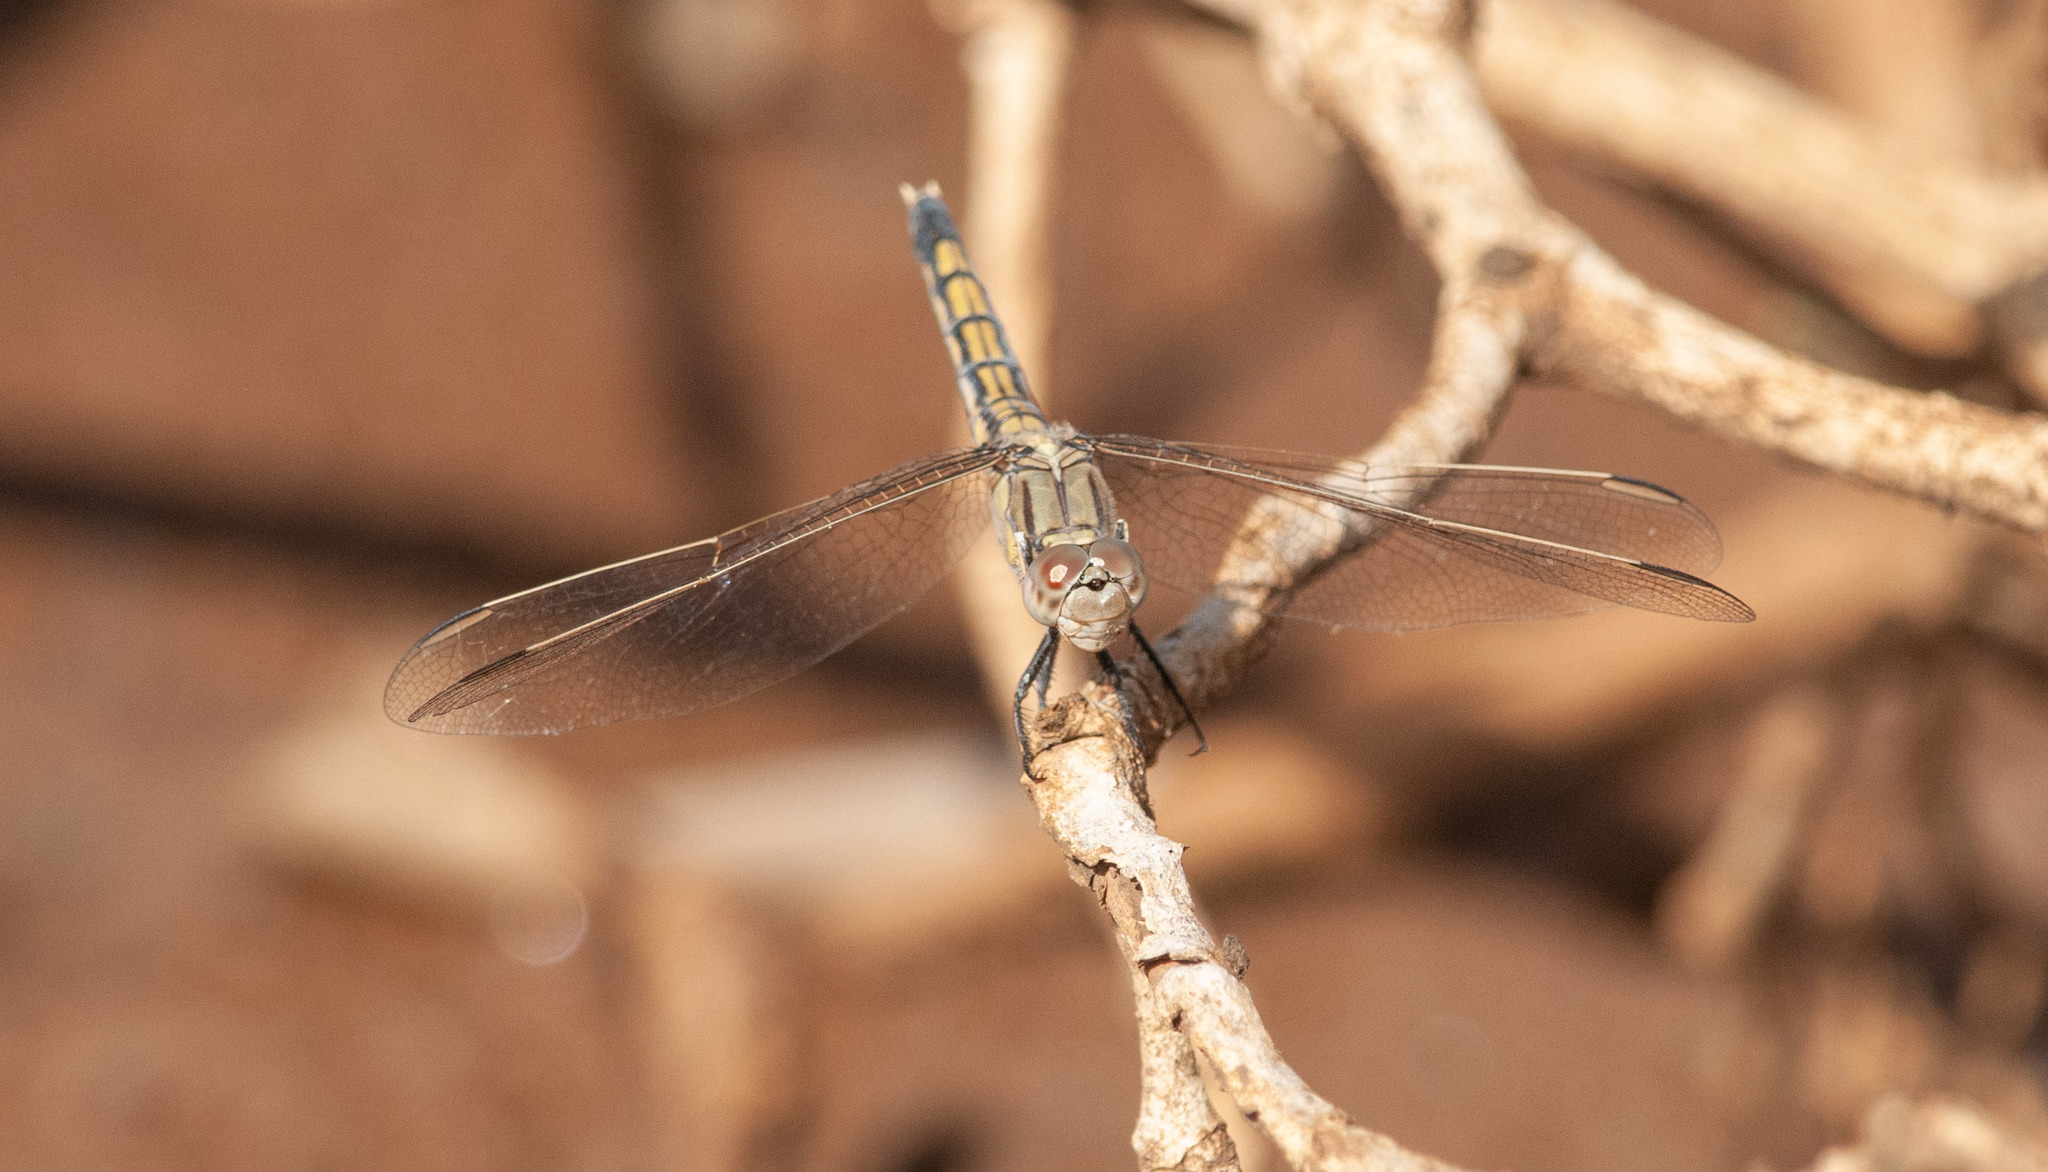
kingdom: Animalia
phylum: Arthropoda
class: Insecta
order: Odonata
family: Libellulidae
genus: Orthetrum
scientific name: Orthetrum caledonicum
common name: Blue skimmer
